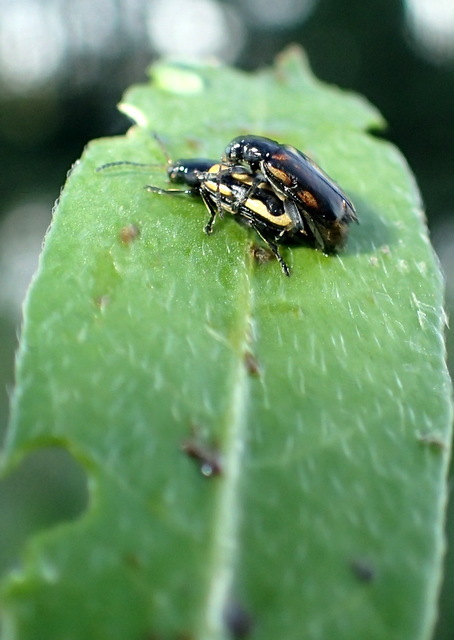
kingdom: Animalia
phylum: Arthropoda
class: Insecta
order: Coleoptera
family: Chrysomelidae
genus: Agasicles
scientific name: Agasicles hygrophila
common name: Alligatorweed flea beetle
